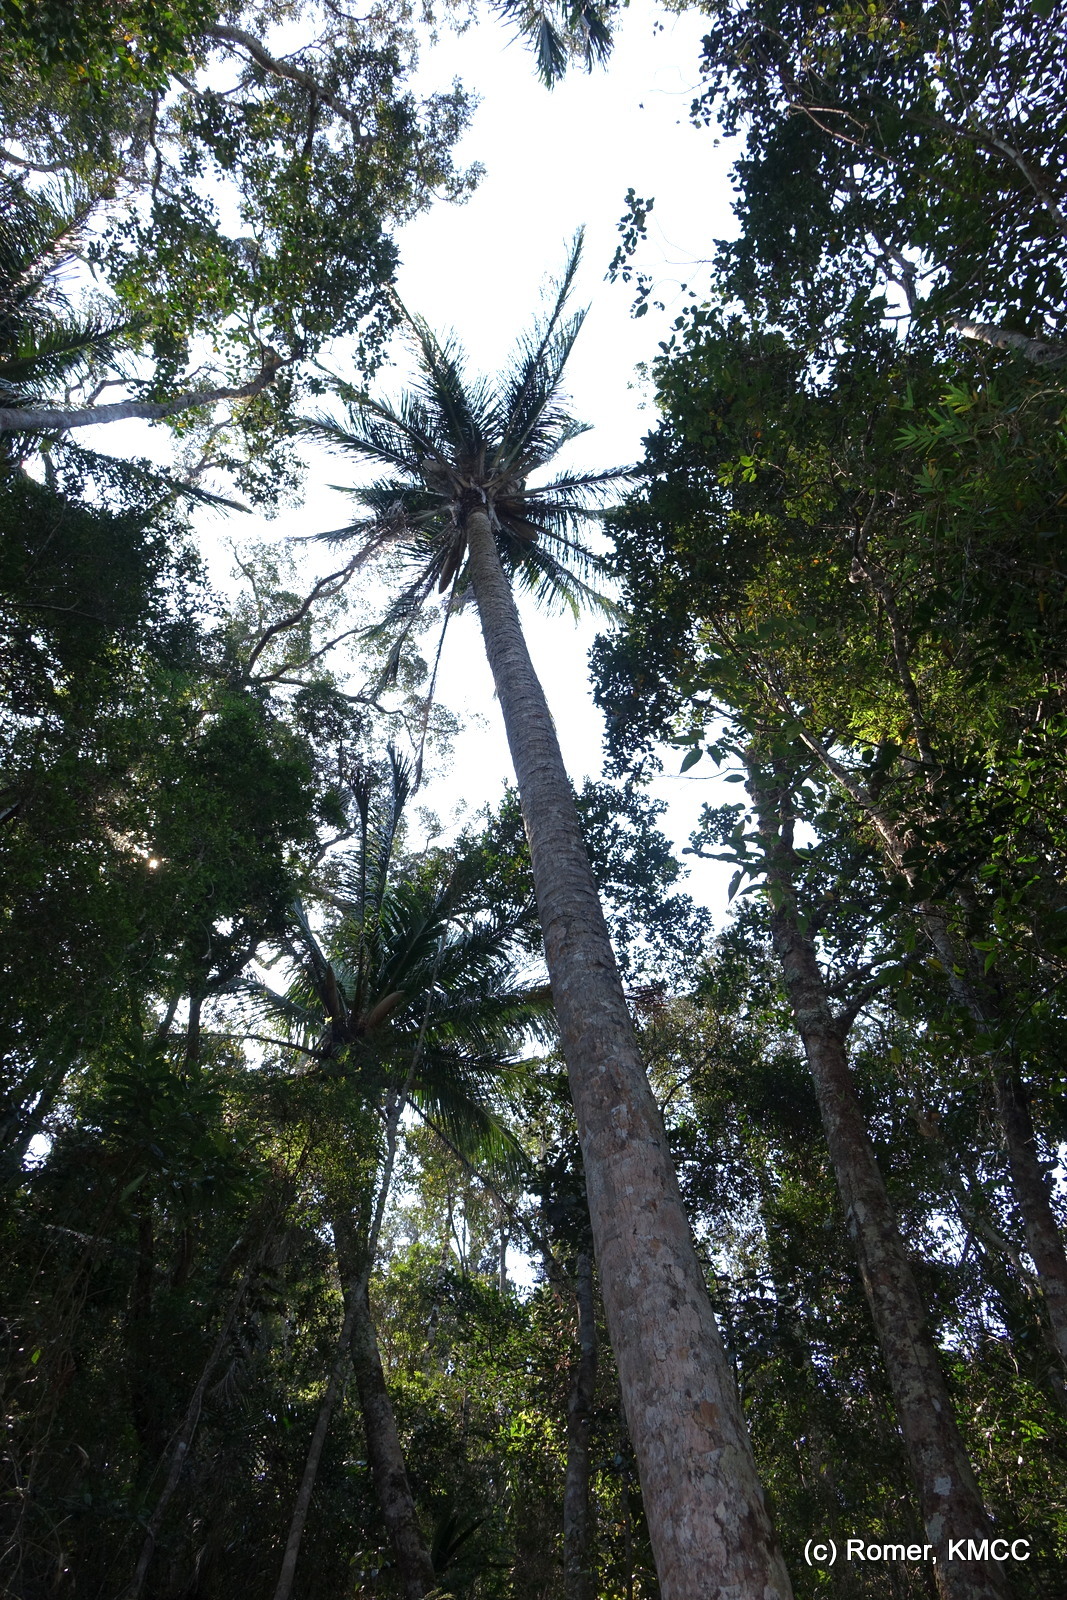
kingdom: Plantae
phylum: Tracheophyta
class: Liliopsida
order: Arecales
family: Arecaceae
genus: Beccariophoenix
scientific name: Beccariophoenix madagascariensis
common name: Manarano palm
